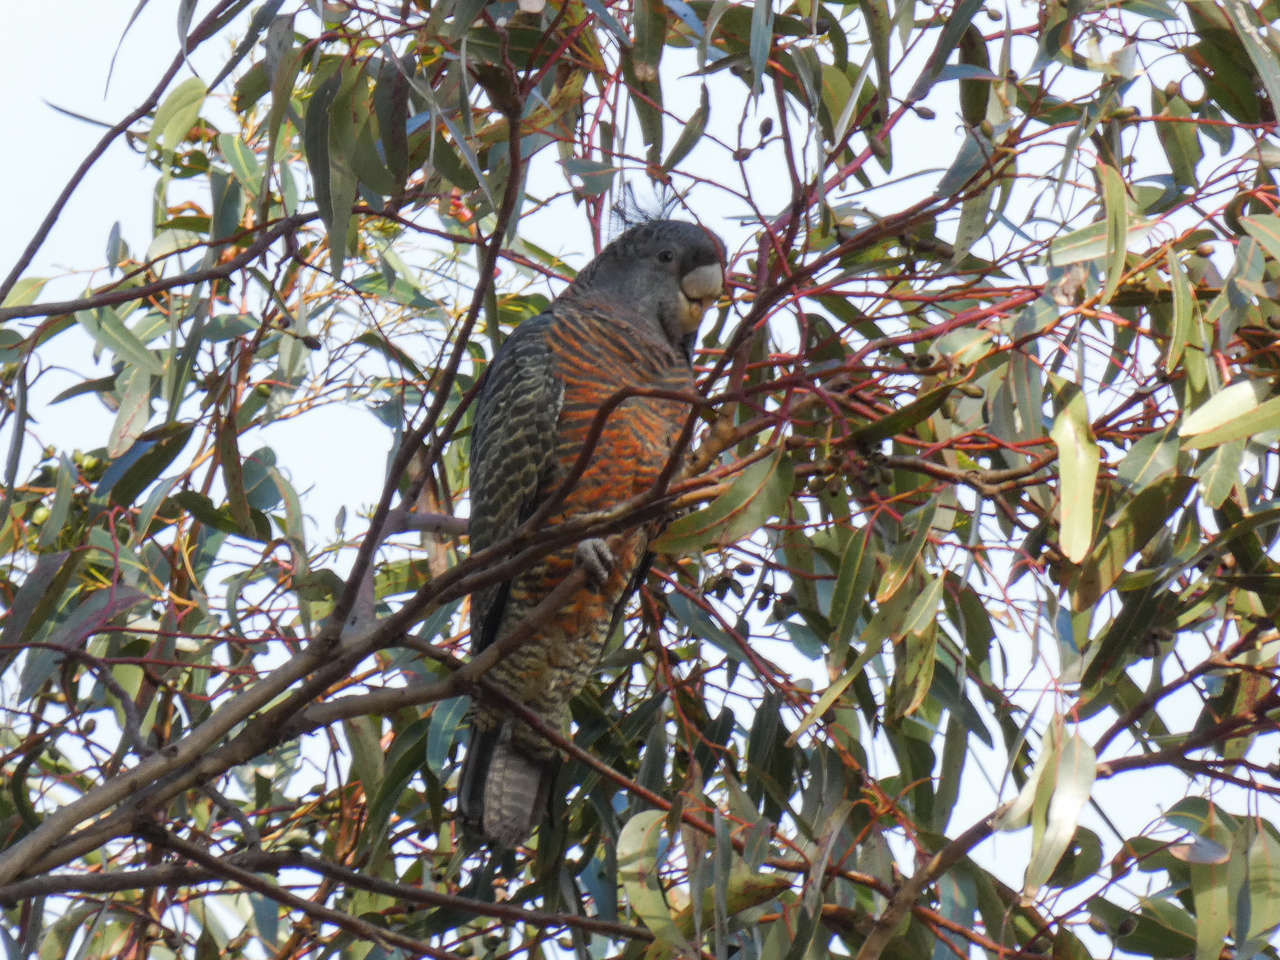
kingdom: Animalia
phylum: Chordata
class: Aves
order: Psittaciformes
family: Psittacidae
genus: Callocephalon
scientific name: Callocephalon fimbriatum
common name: Gang-gang cockatoo
